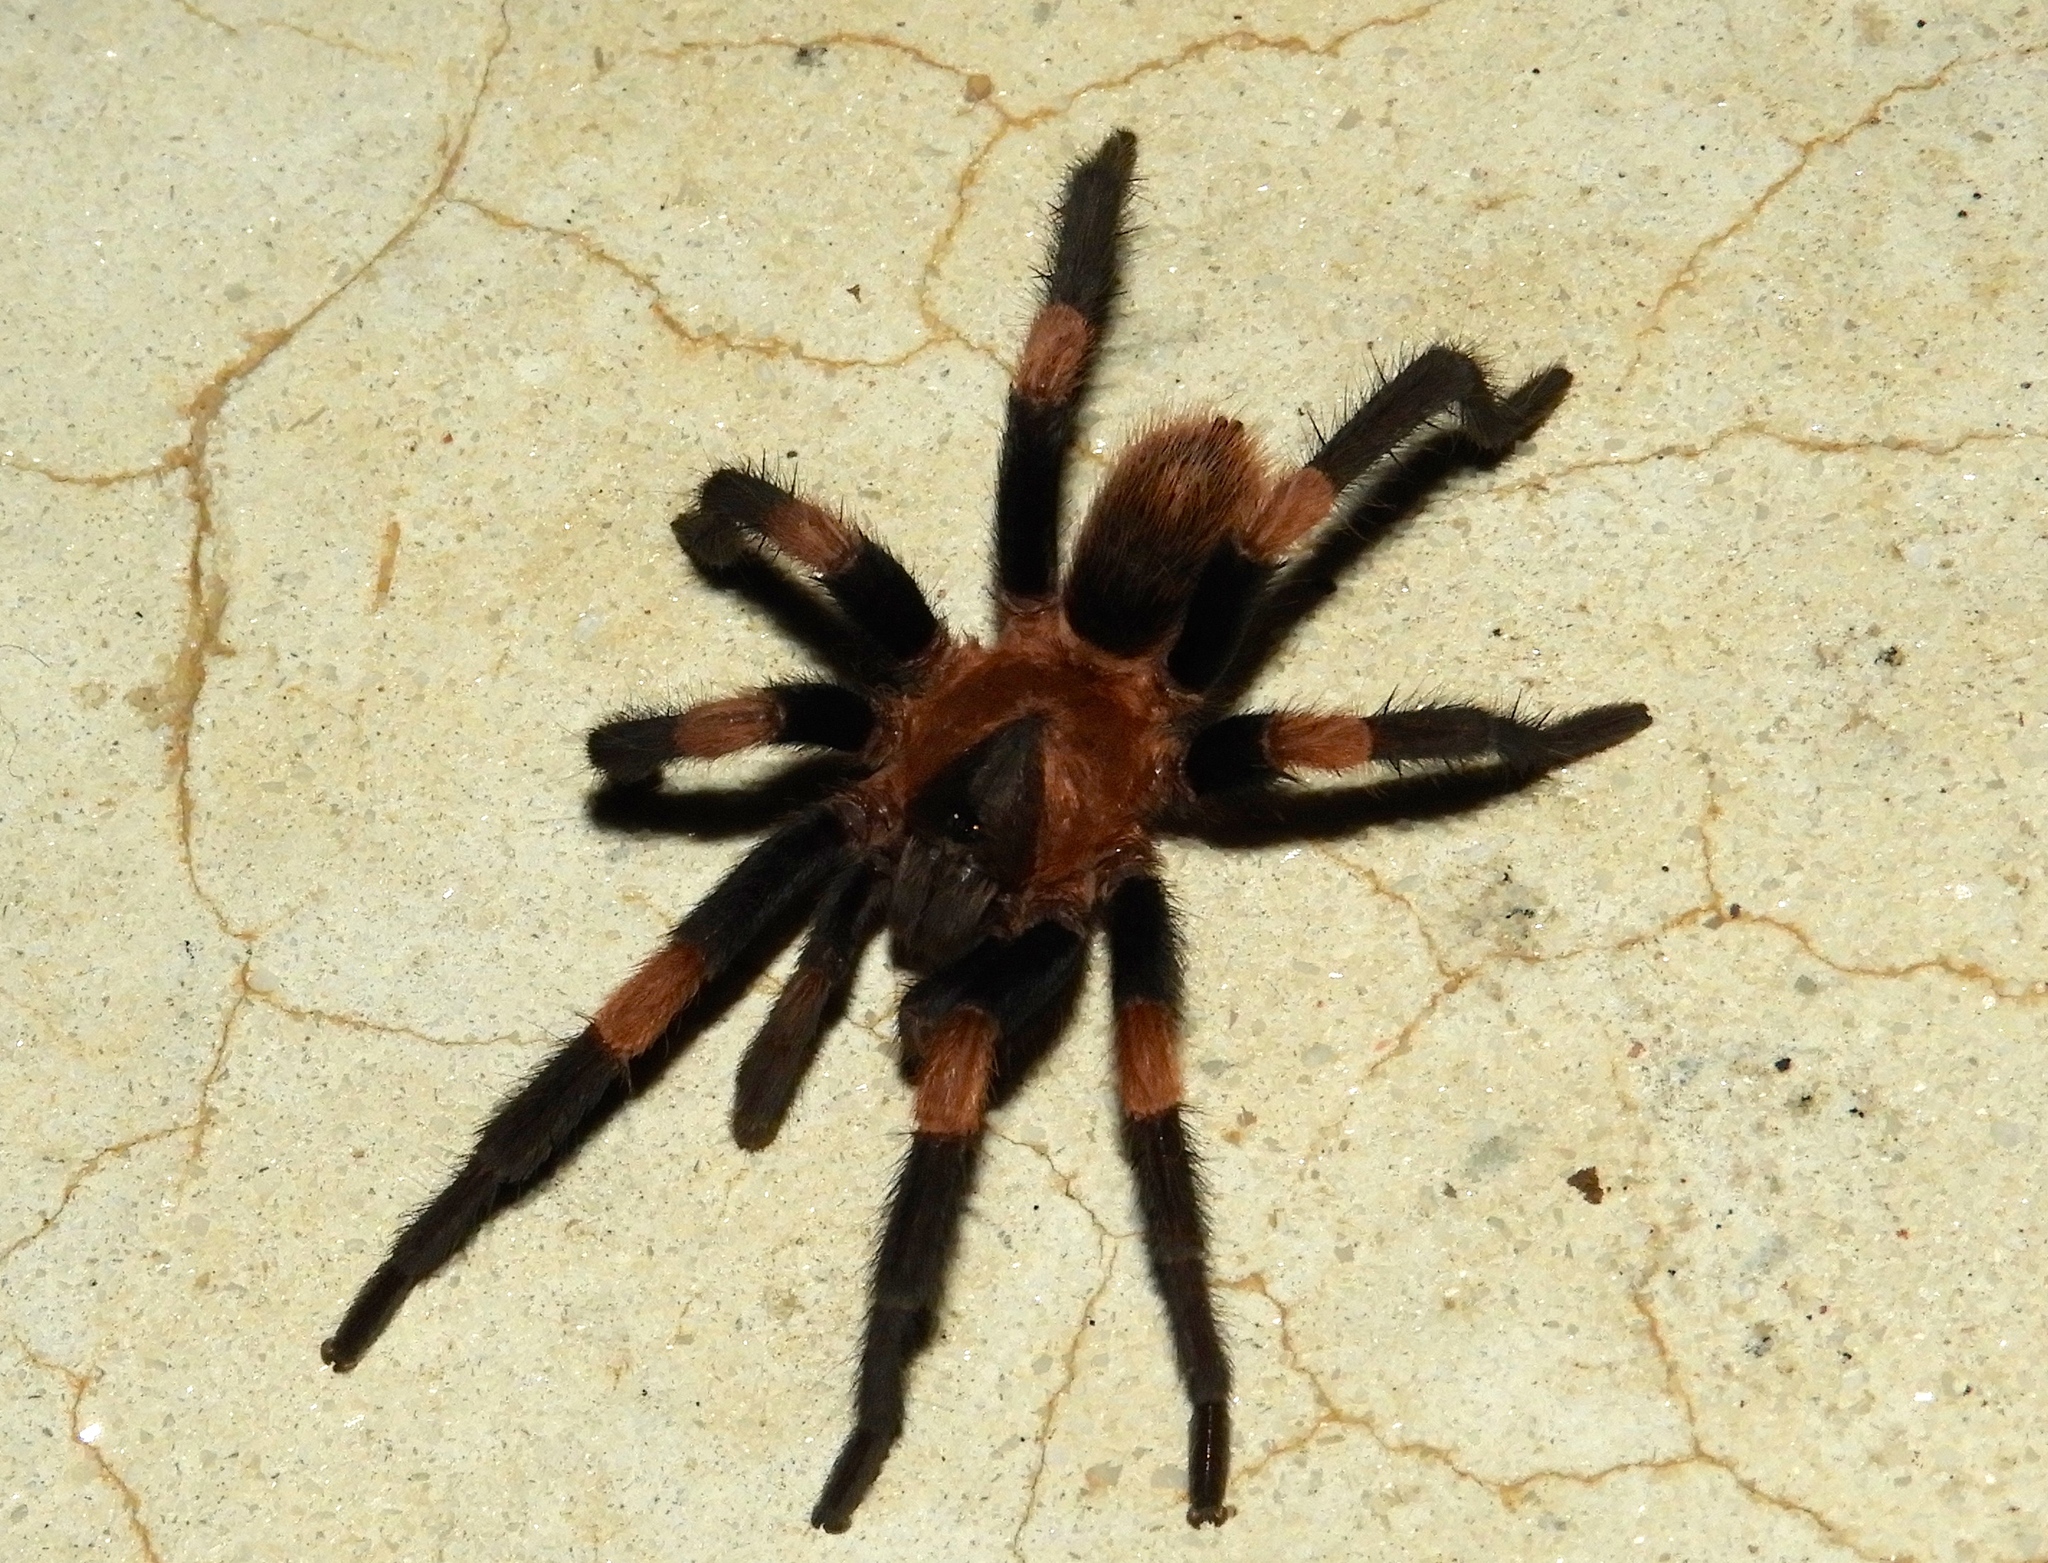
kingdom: Animalia
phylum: Arthropoda
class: Arachnida
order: Araneae
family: Theraphosidae
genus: Magnacarina
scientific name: Magnacarina
